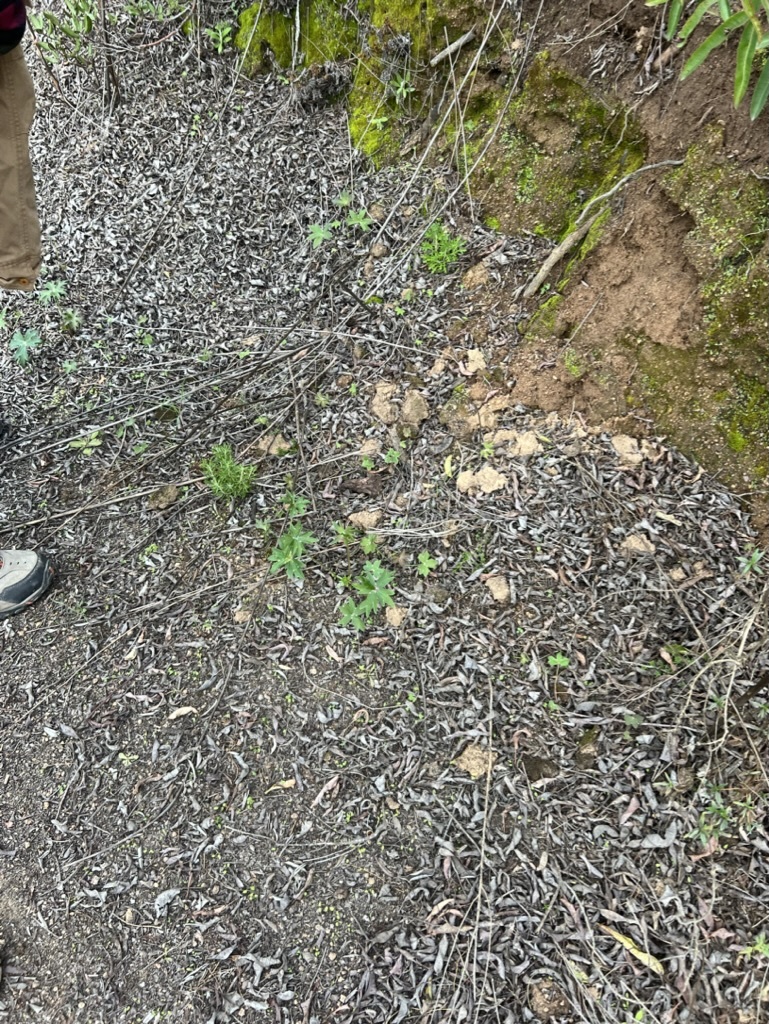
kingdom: Plantae
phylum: Tracheophyta
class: Magnoliopsida
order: Ranunculales
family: Ranunculaceae
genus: Delphinium
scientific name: Delphinium cardinale
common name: Scarlet larkspur
